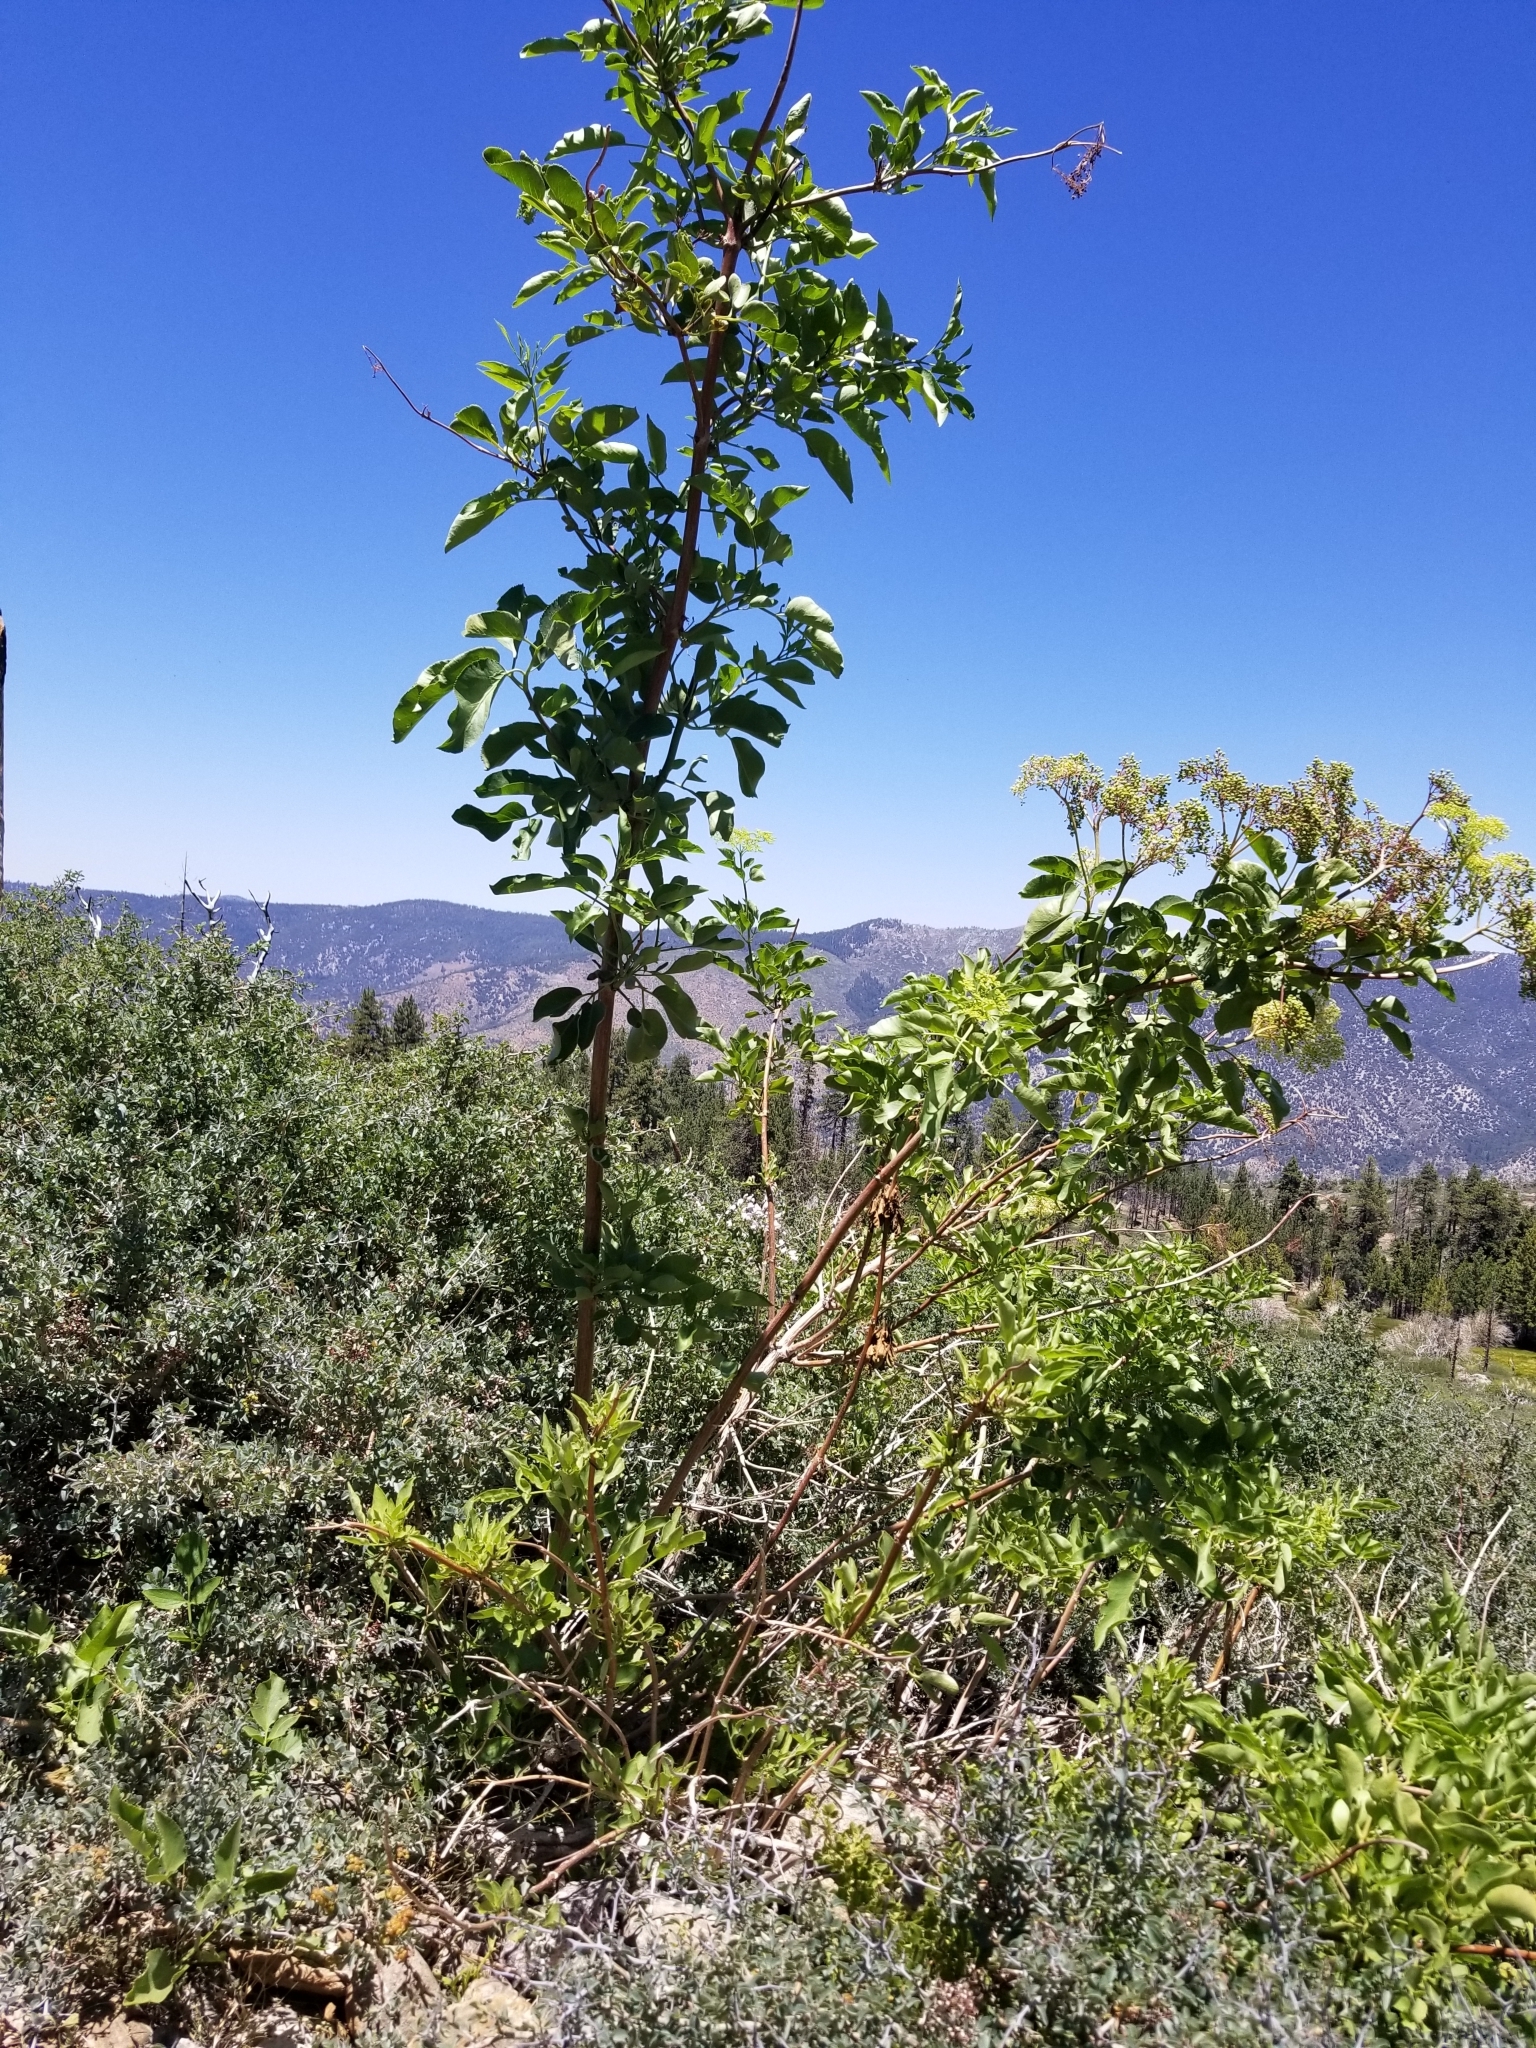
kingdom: Plantae
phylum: Tracheophyta
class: Magnoliopsida
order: Dipsacales
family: Viburnaceae
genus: Sambucus
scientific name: Sambucus cerulea
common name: Blue elder
